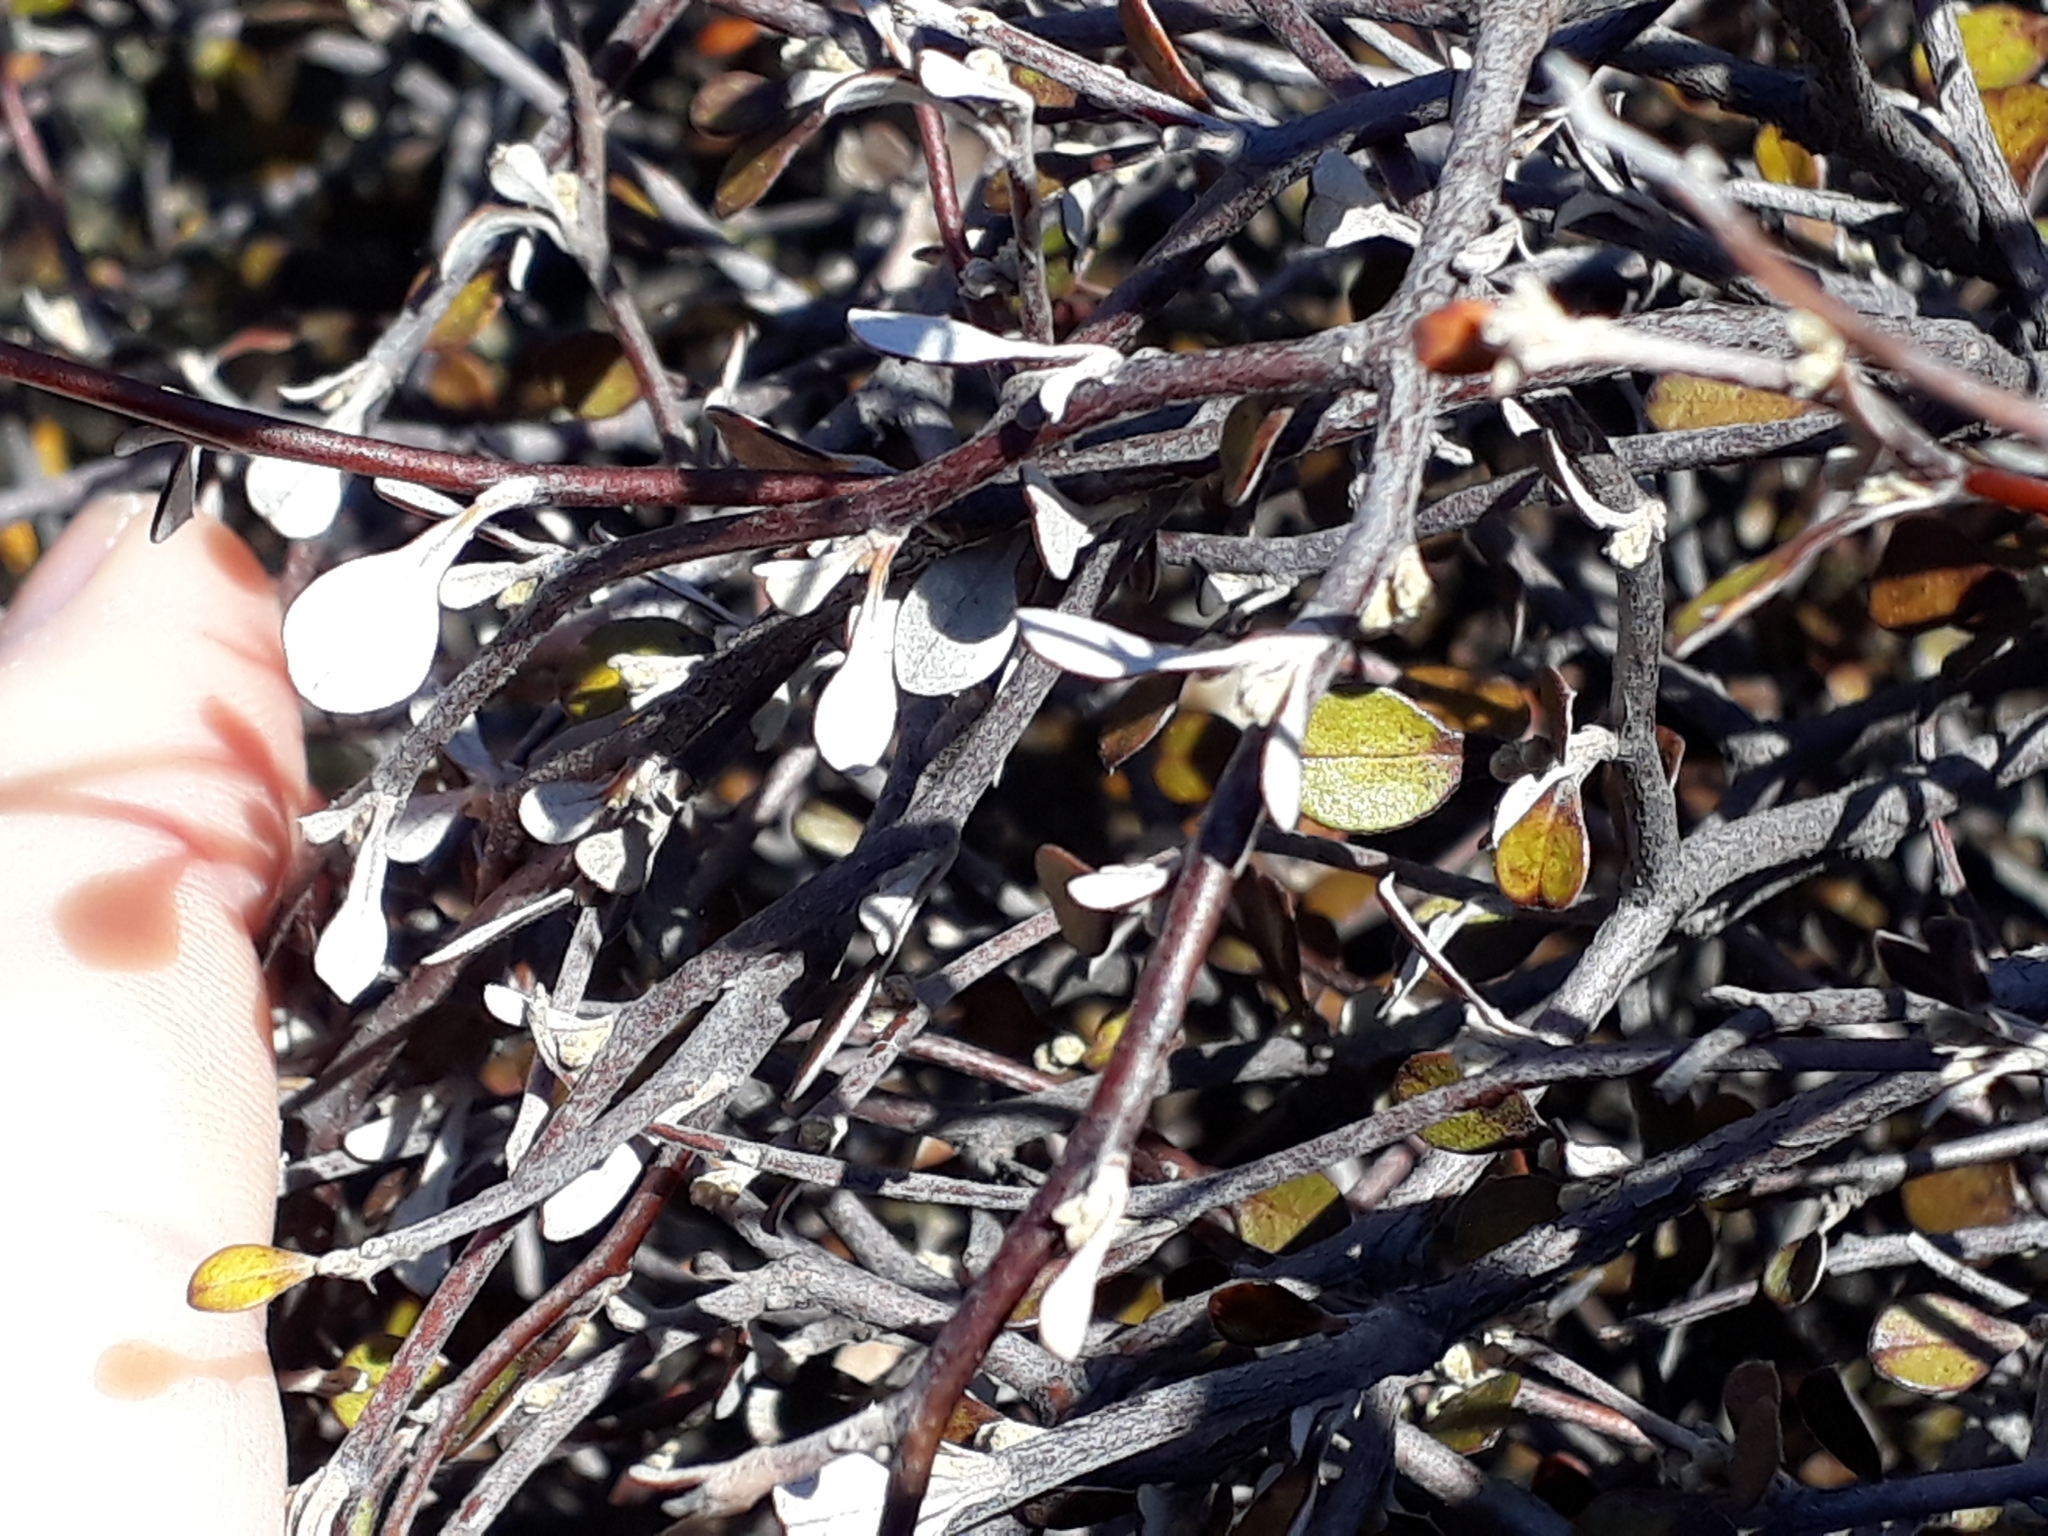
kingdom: Plantae
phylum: Tracheophyta
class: Magnoliopsida
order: Asterales
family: Argophyllaceae
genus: Corokia
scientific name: Corokia cotoneaster
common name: Wire nettingbush
